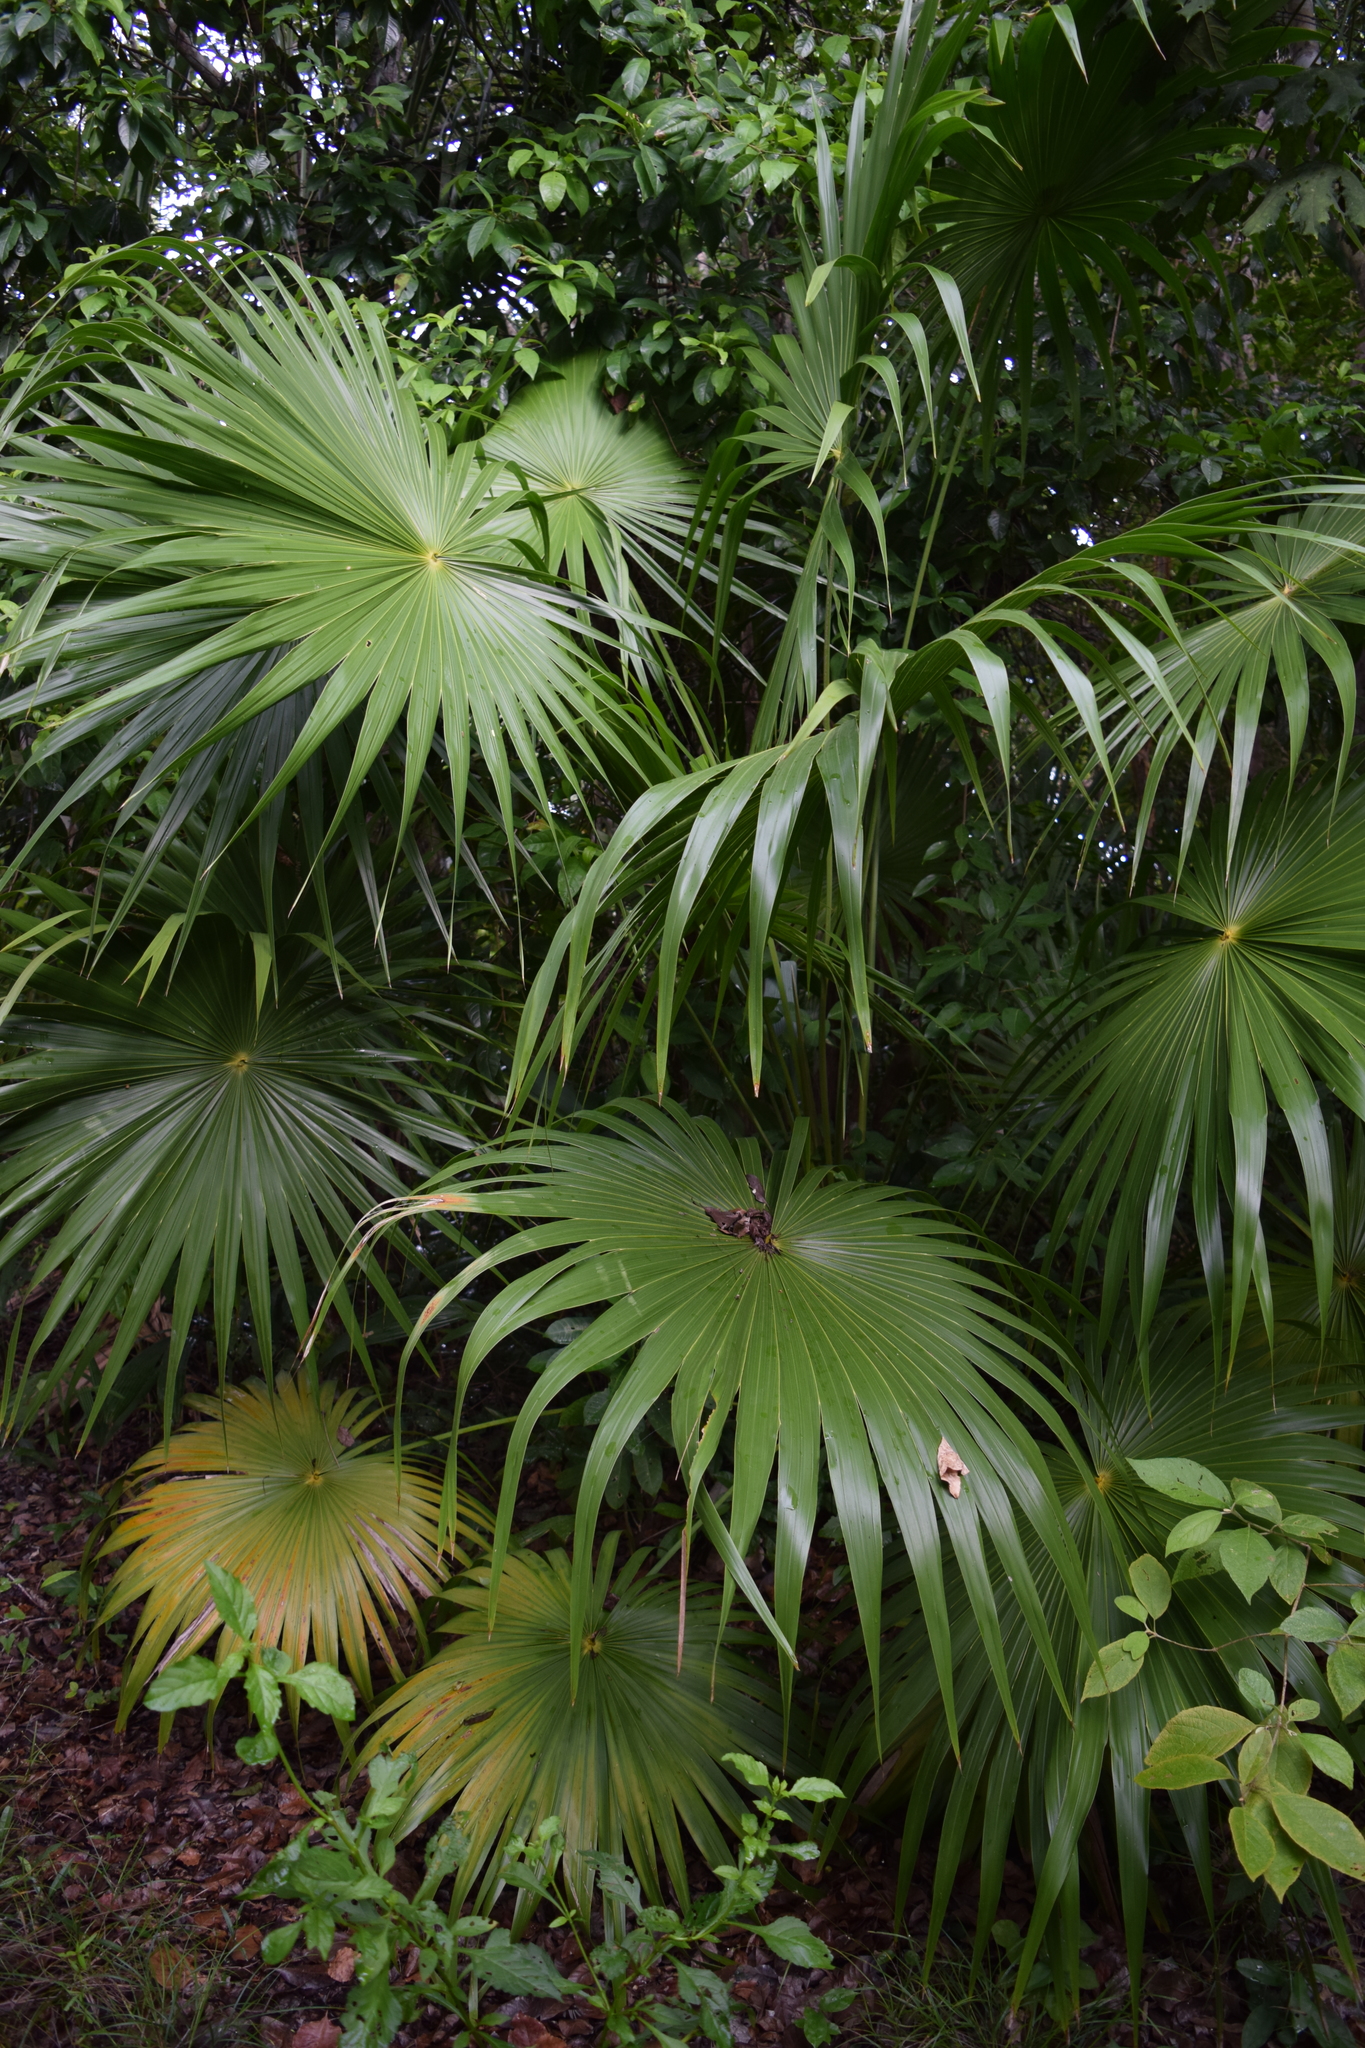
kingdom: Plantae
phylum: Tracheophyta
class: Liliopsida
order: Arecales
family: Arecaceae
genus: Thrinax
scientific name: Thrinax radiata
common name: Florida thatch
